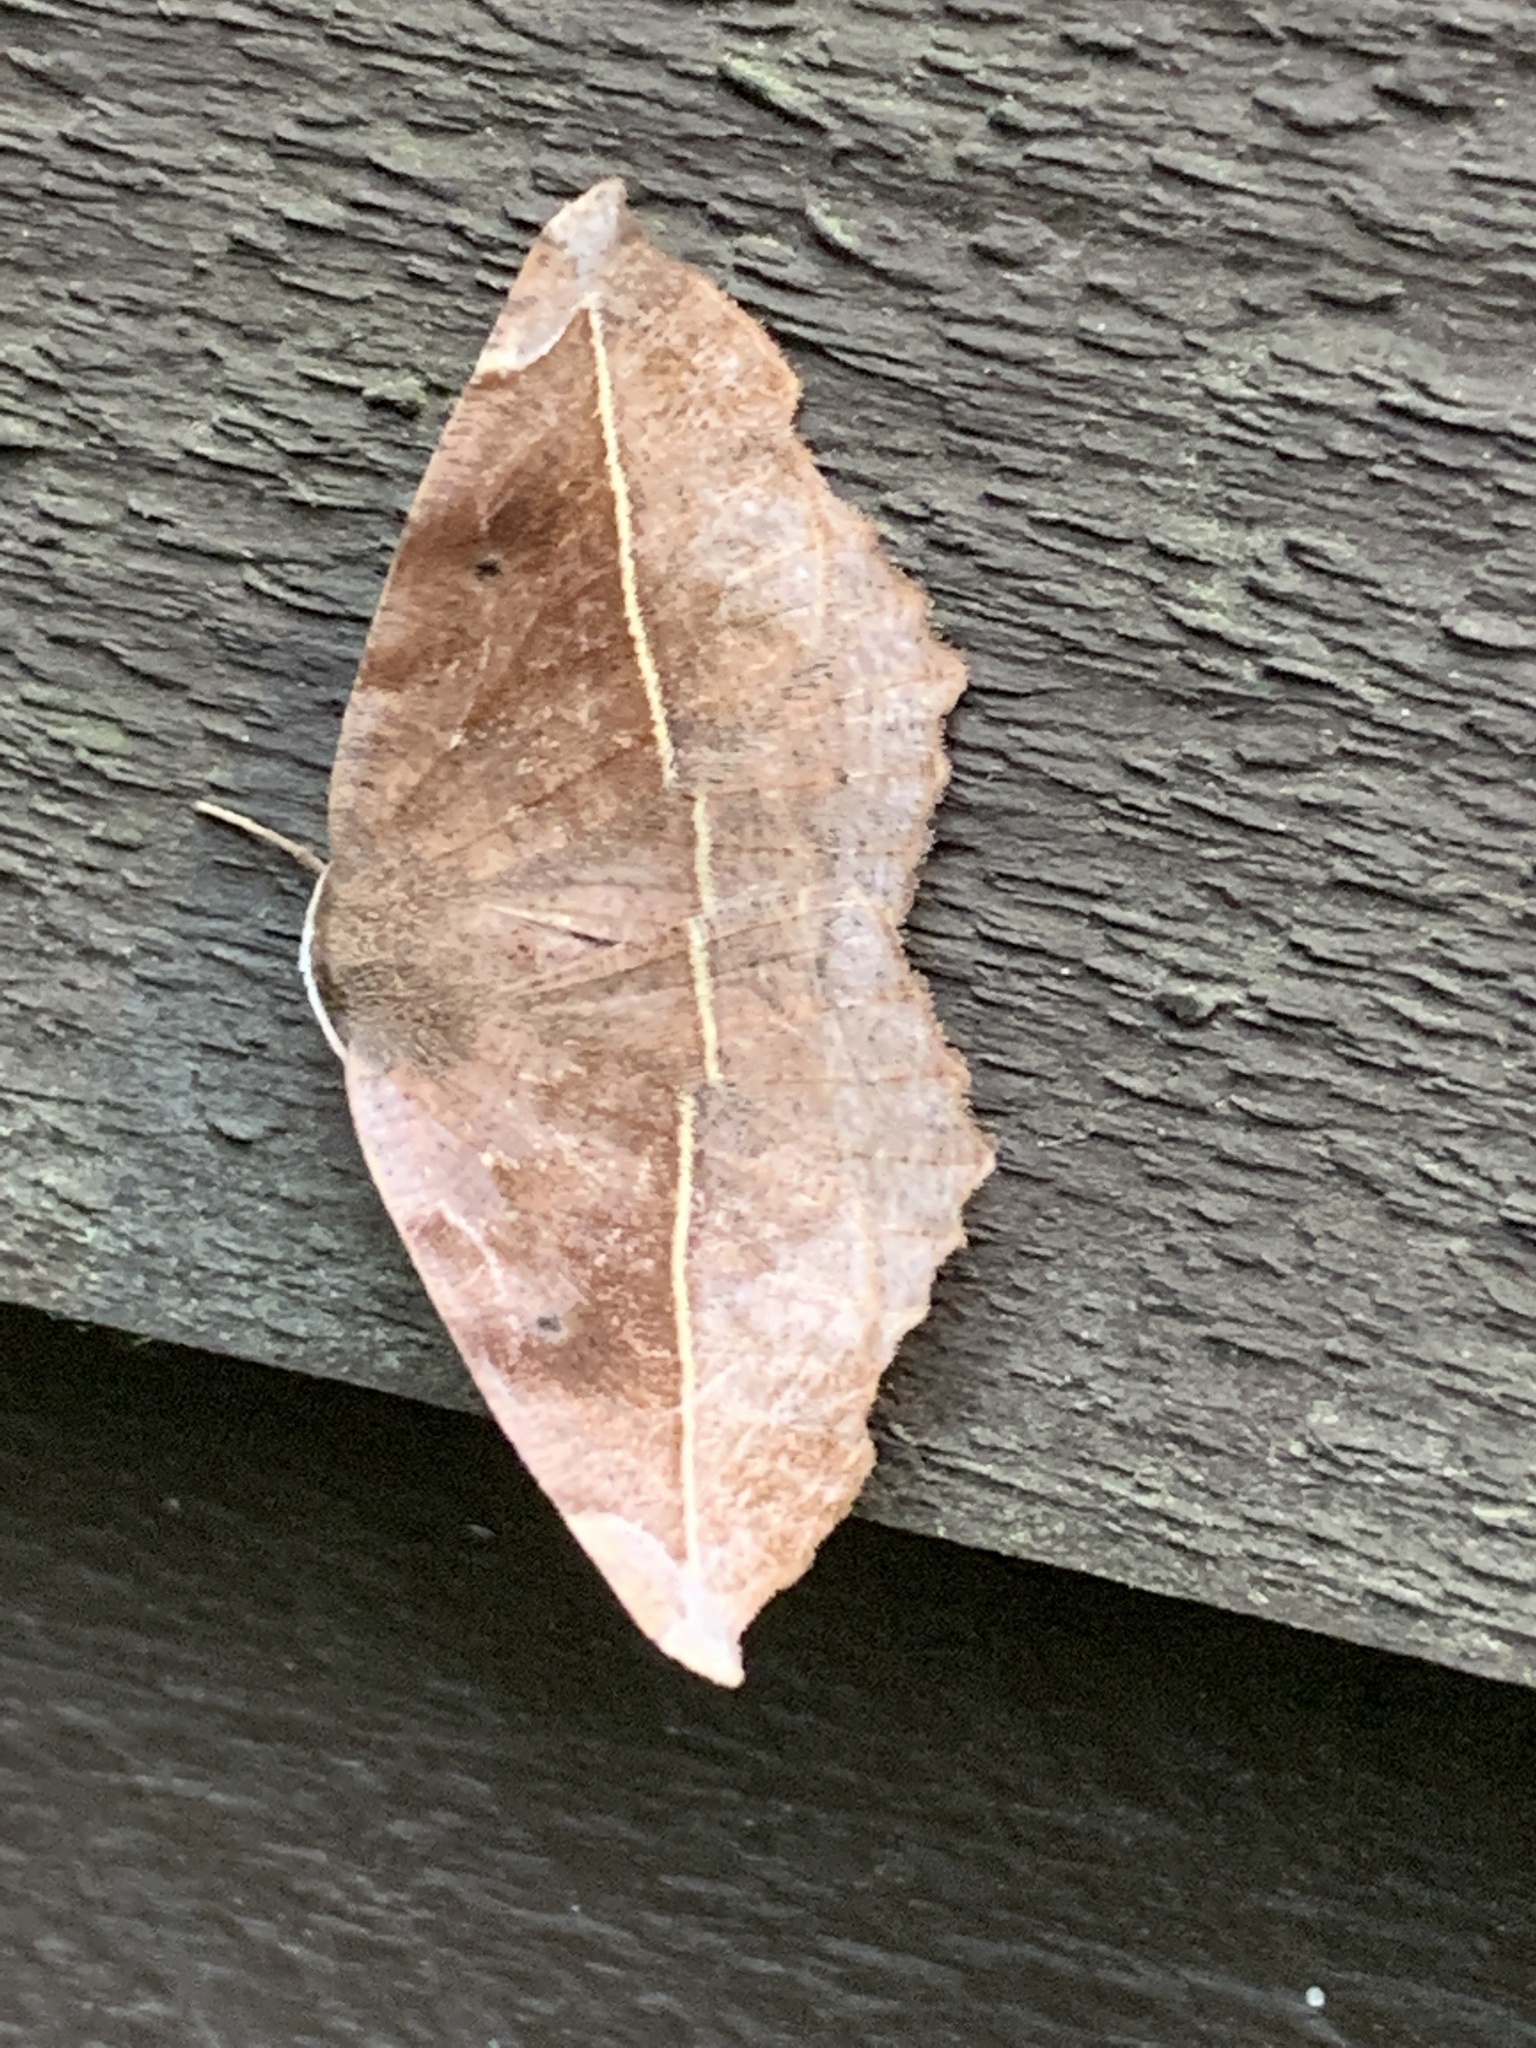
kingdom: Animalia
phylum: Arthropoda
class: Insecta
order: Lepidoptera
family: Geometridae
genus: Eutrapela
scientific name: Eutrapela clemataria
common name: Curved-toothed geometer
